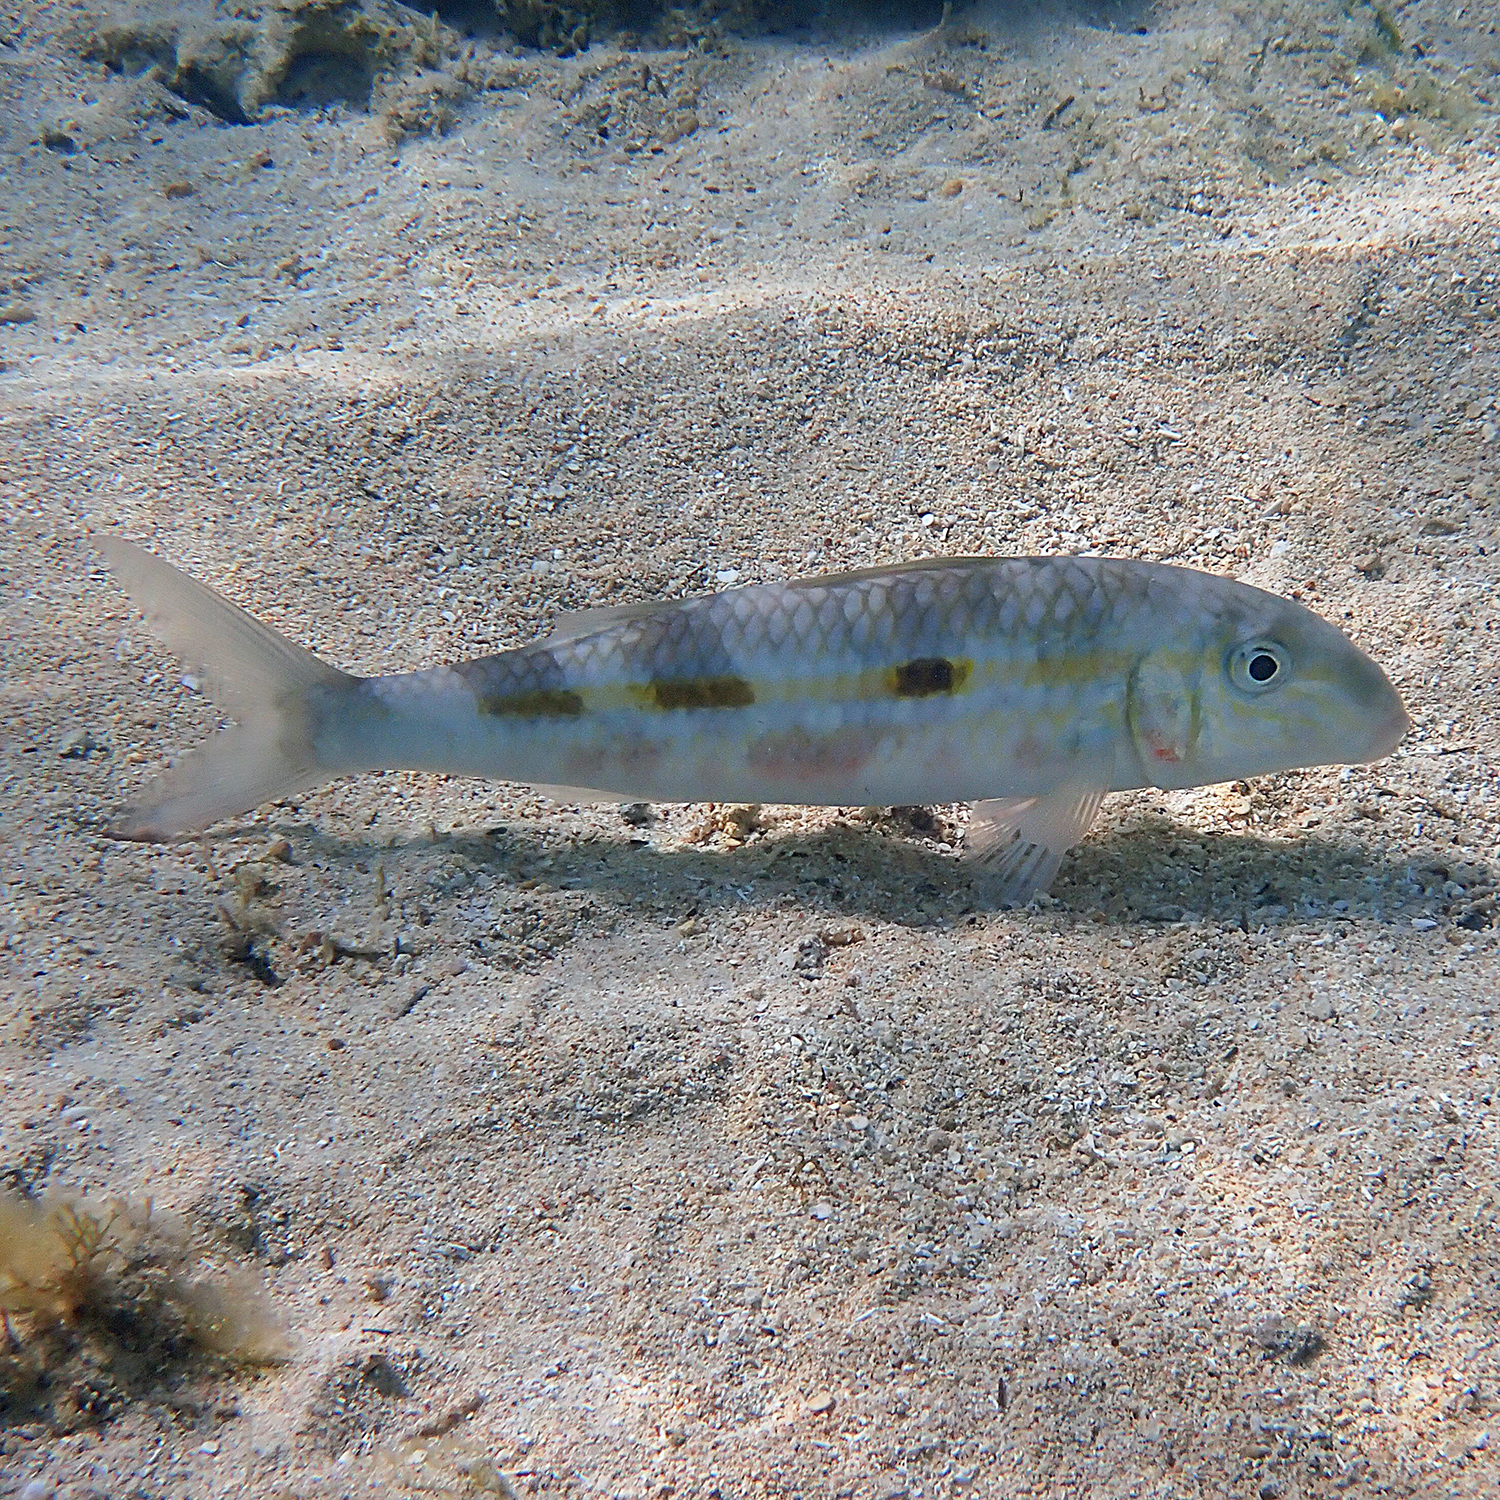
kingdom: Animalia
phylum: Chordata
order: Perciformes
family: Mullidae
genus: Mulloidichthys
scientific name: Mulloidichthys flavolineatus
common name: Yellowstripe goatfish
